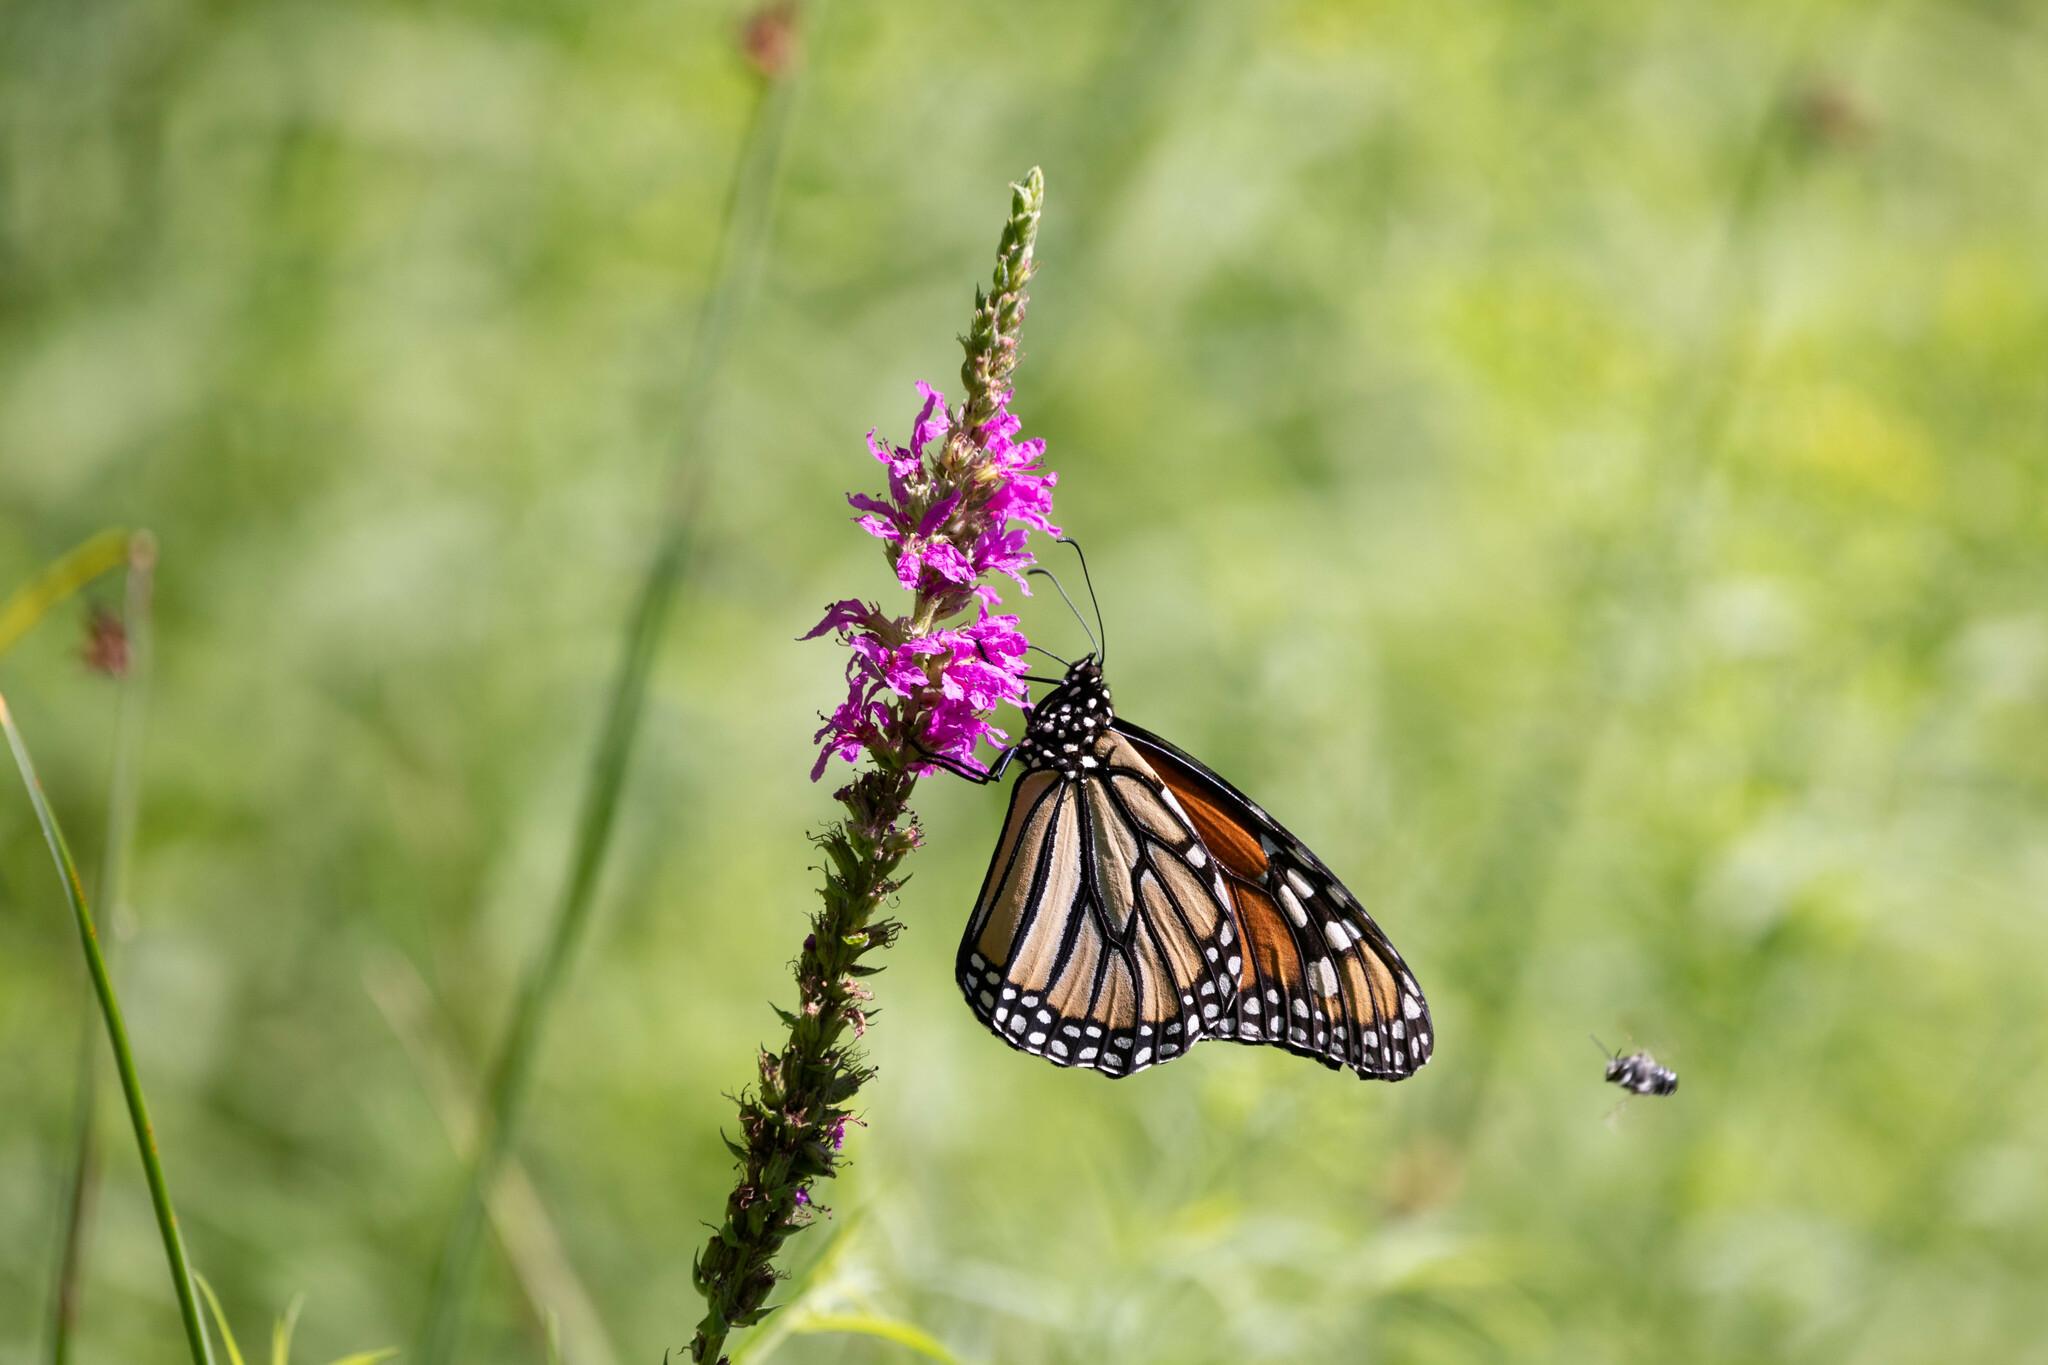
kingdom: Animalia
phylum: Arthropoda
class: Insecta
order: Lepidoptera
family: Nymphalidae
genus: Danaus
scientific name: Danaus plexippus
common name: Monarch
